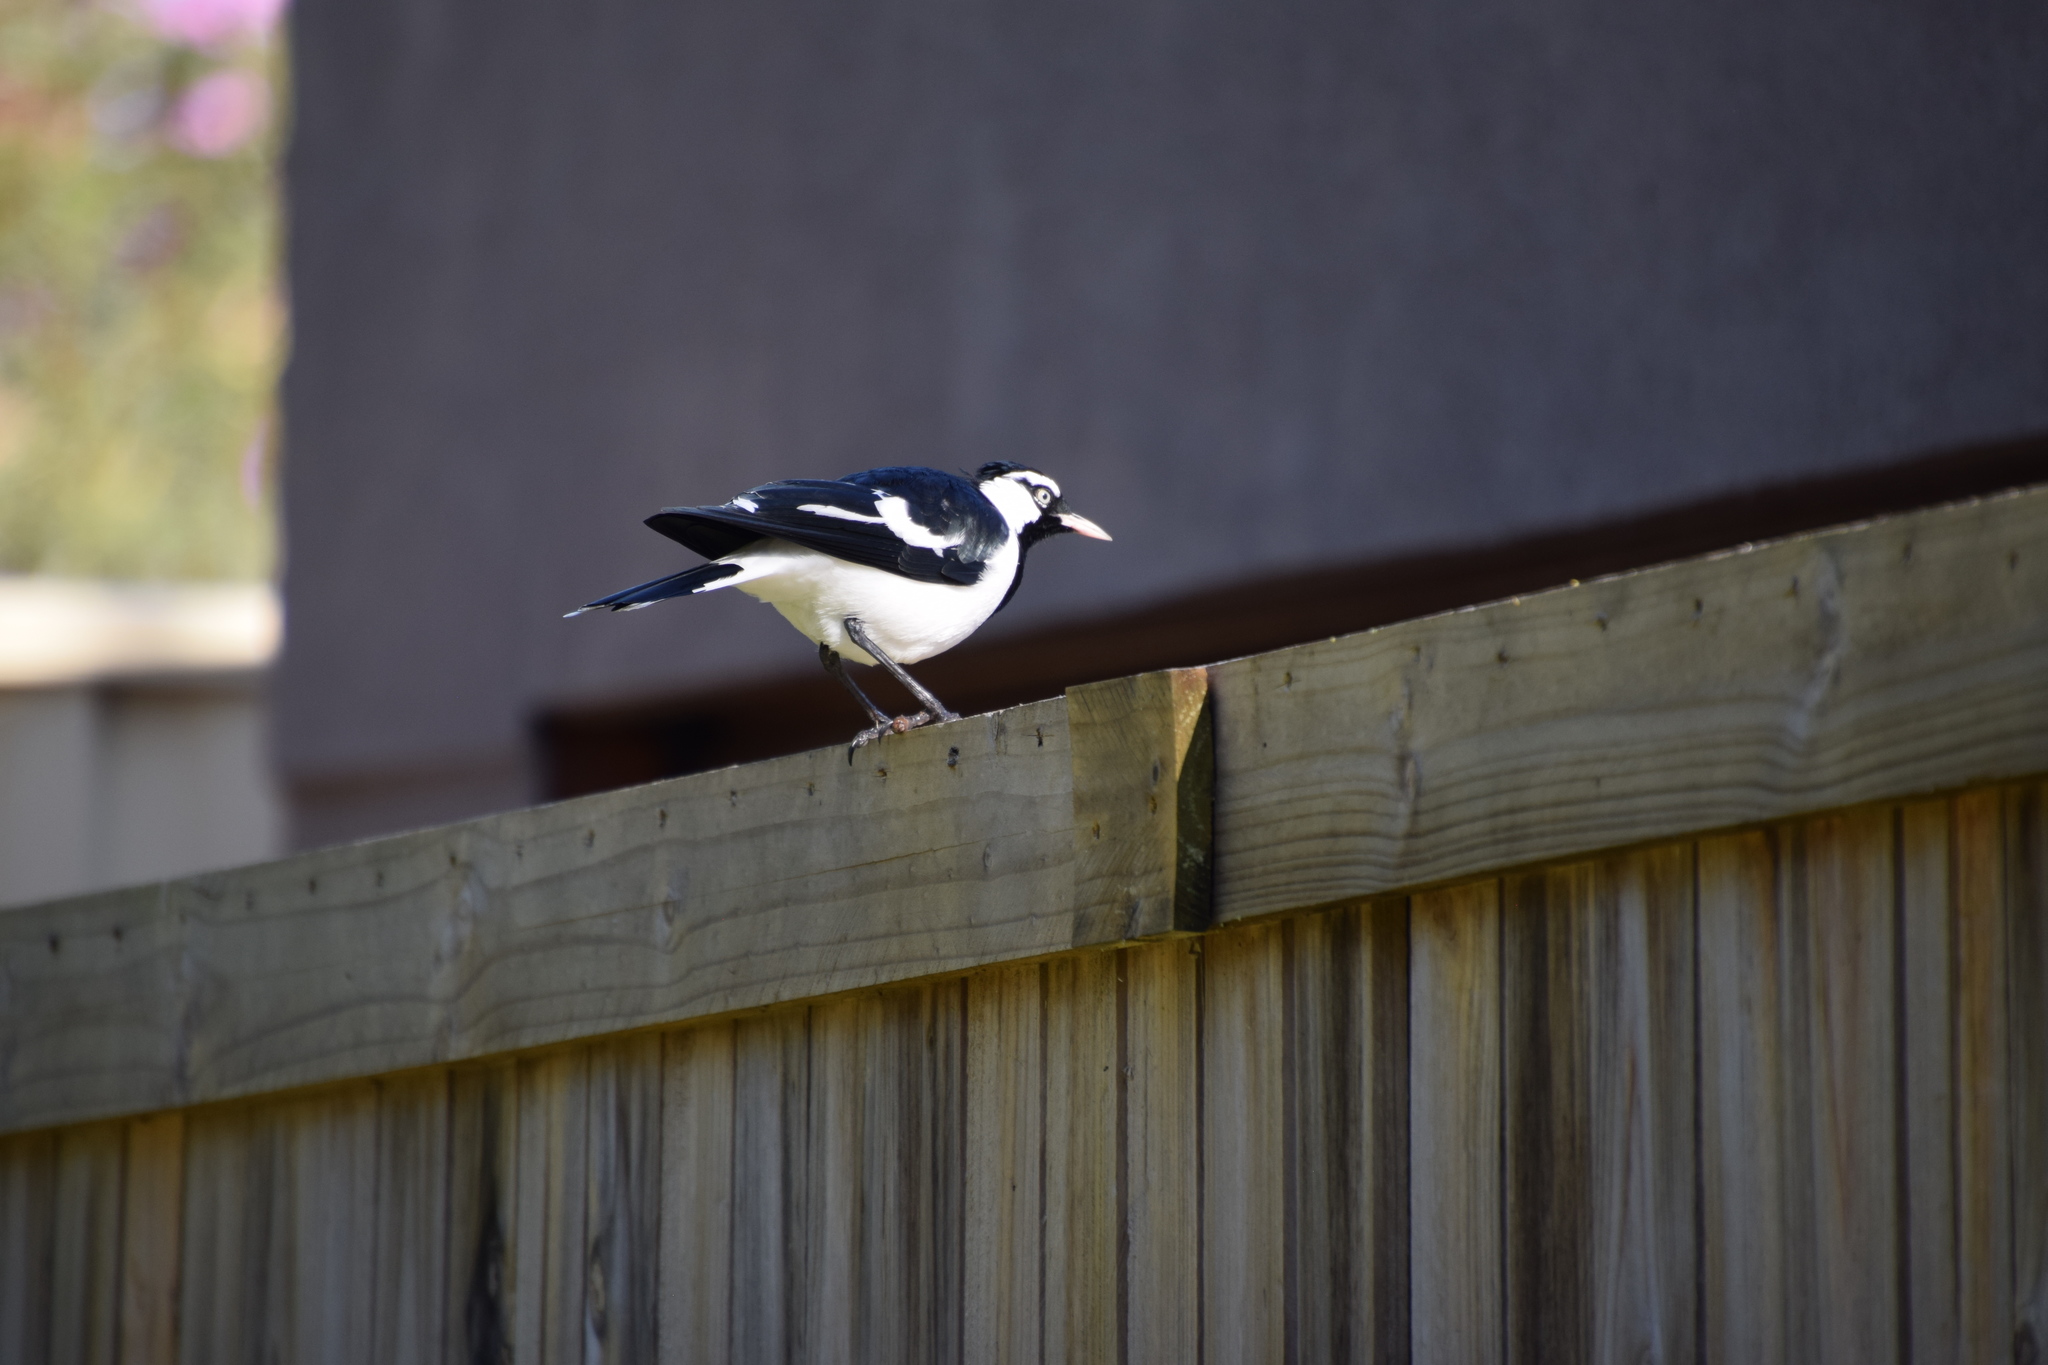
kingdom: Animalia
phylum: Chordata
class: Aves
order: Passeriformes
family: Monarchidae
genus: Grallina
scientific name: Grallina cyanoleuca
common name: Magpie-lark
